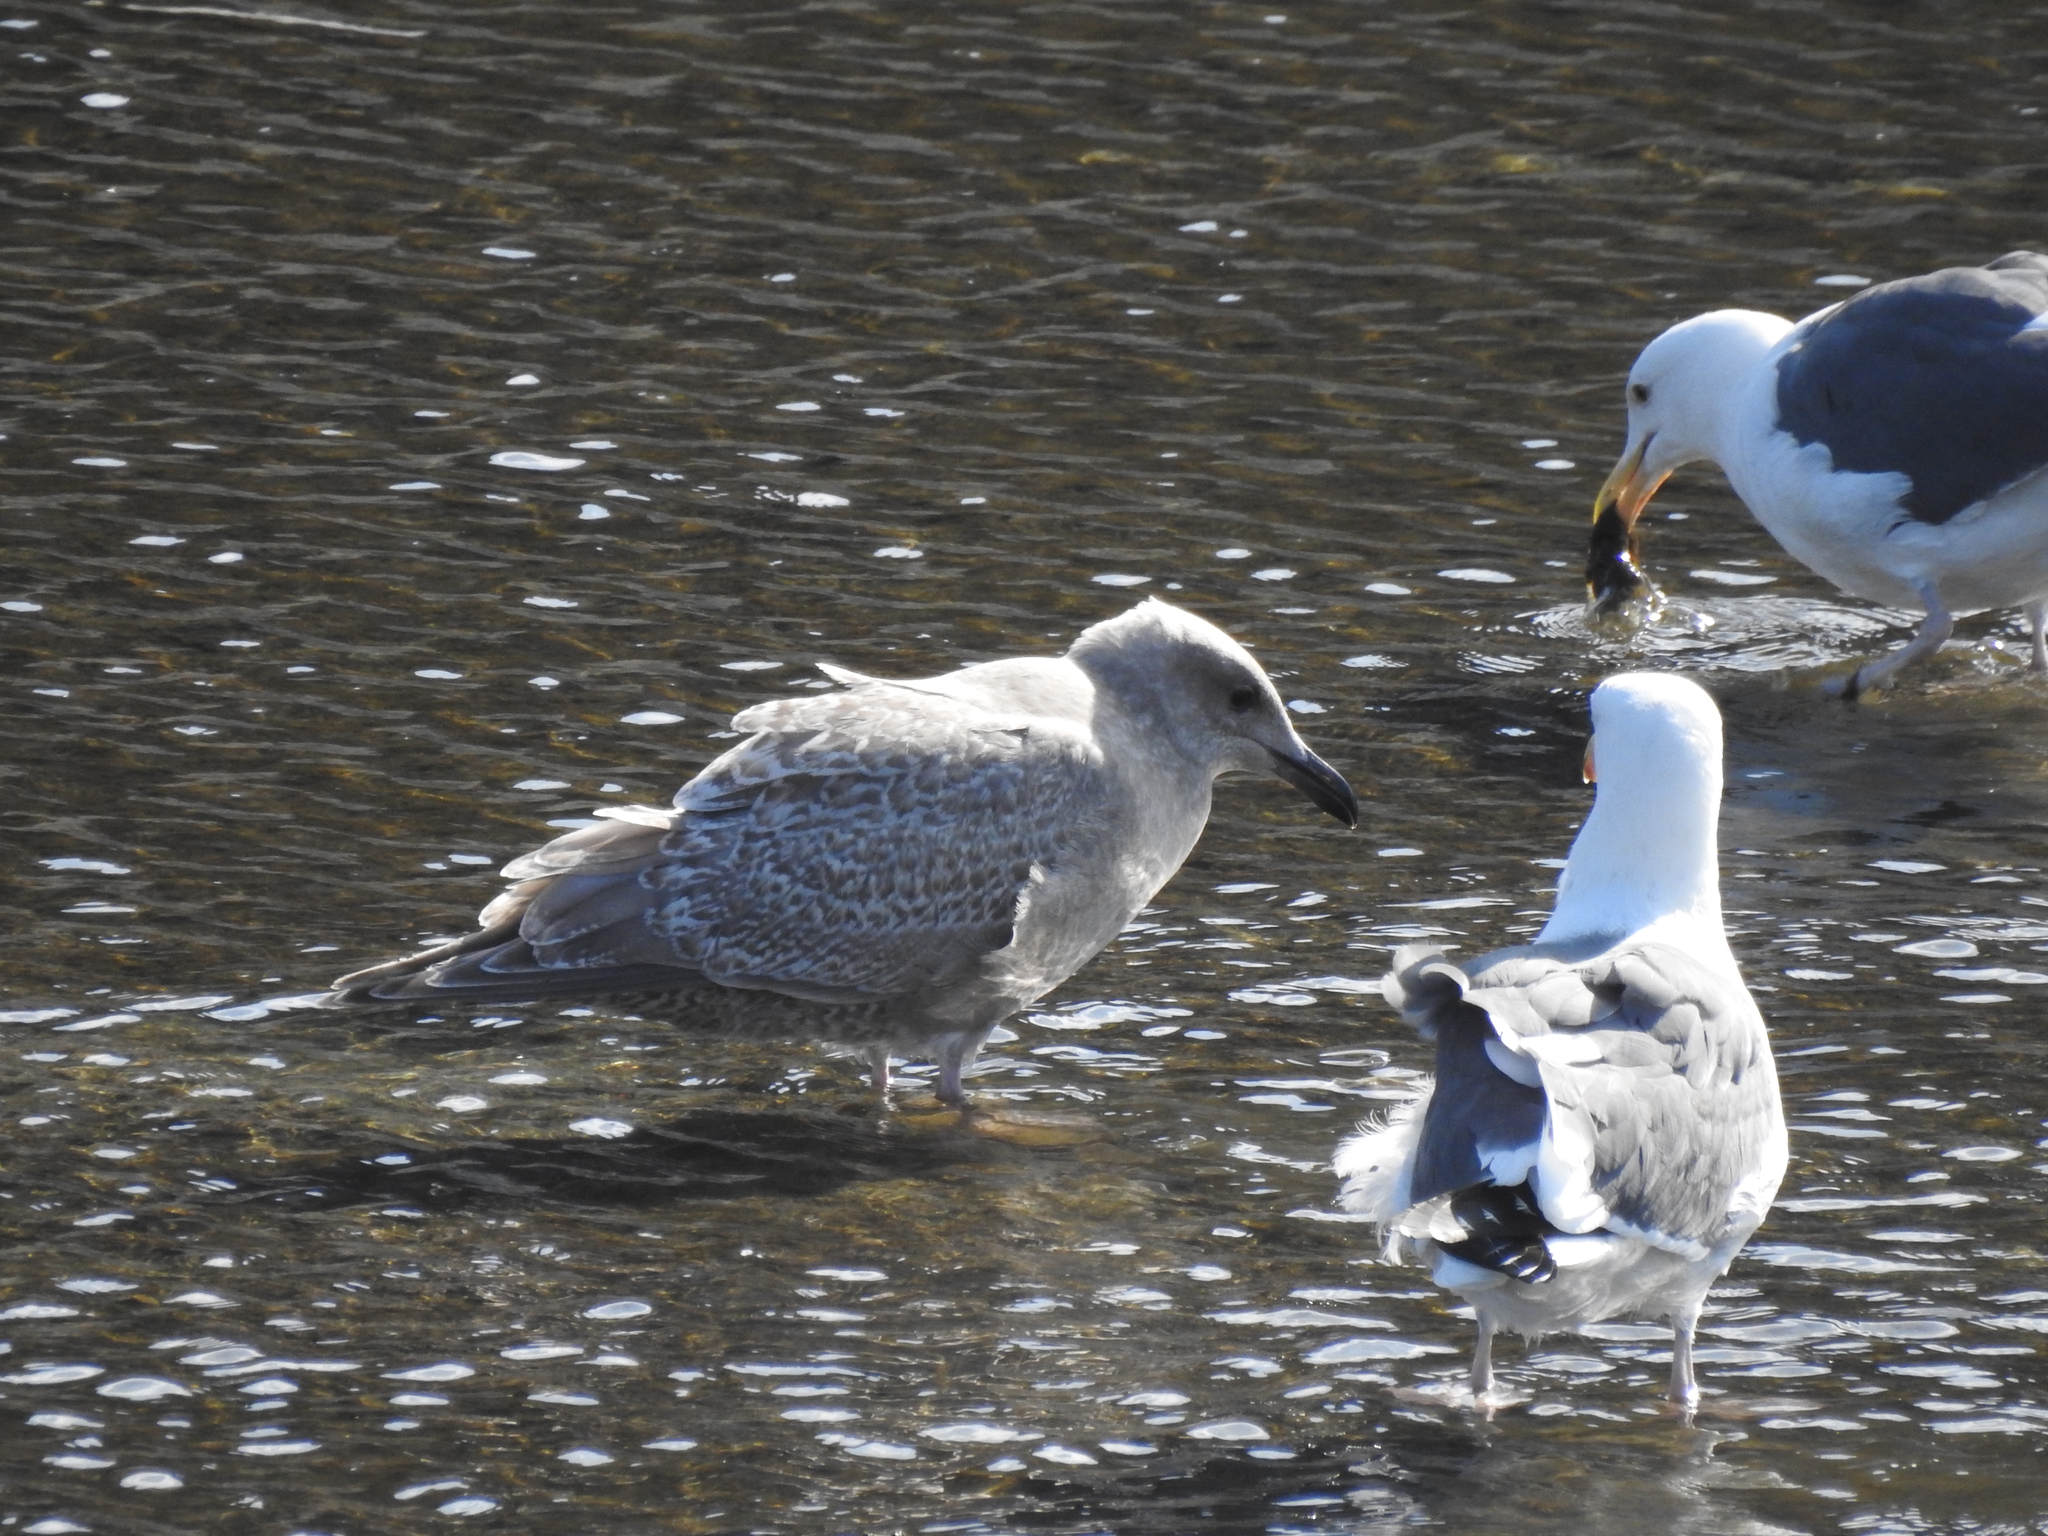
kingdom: Animalia
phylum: Chordata
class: Aves
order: Charadriiformes
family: Laridae
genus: Larus
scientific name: Larus glaucoides
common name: Iceland gull
